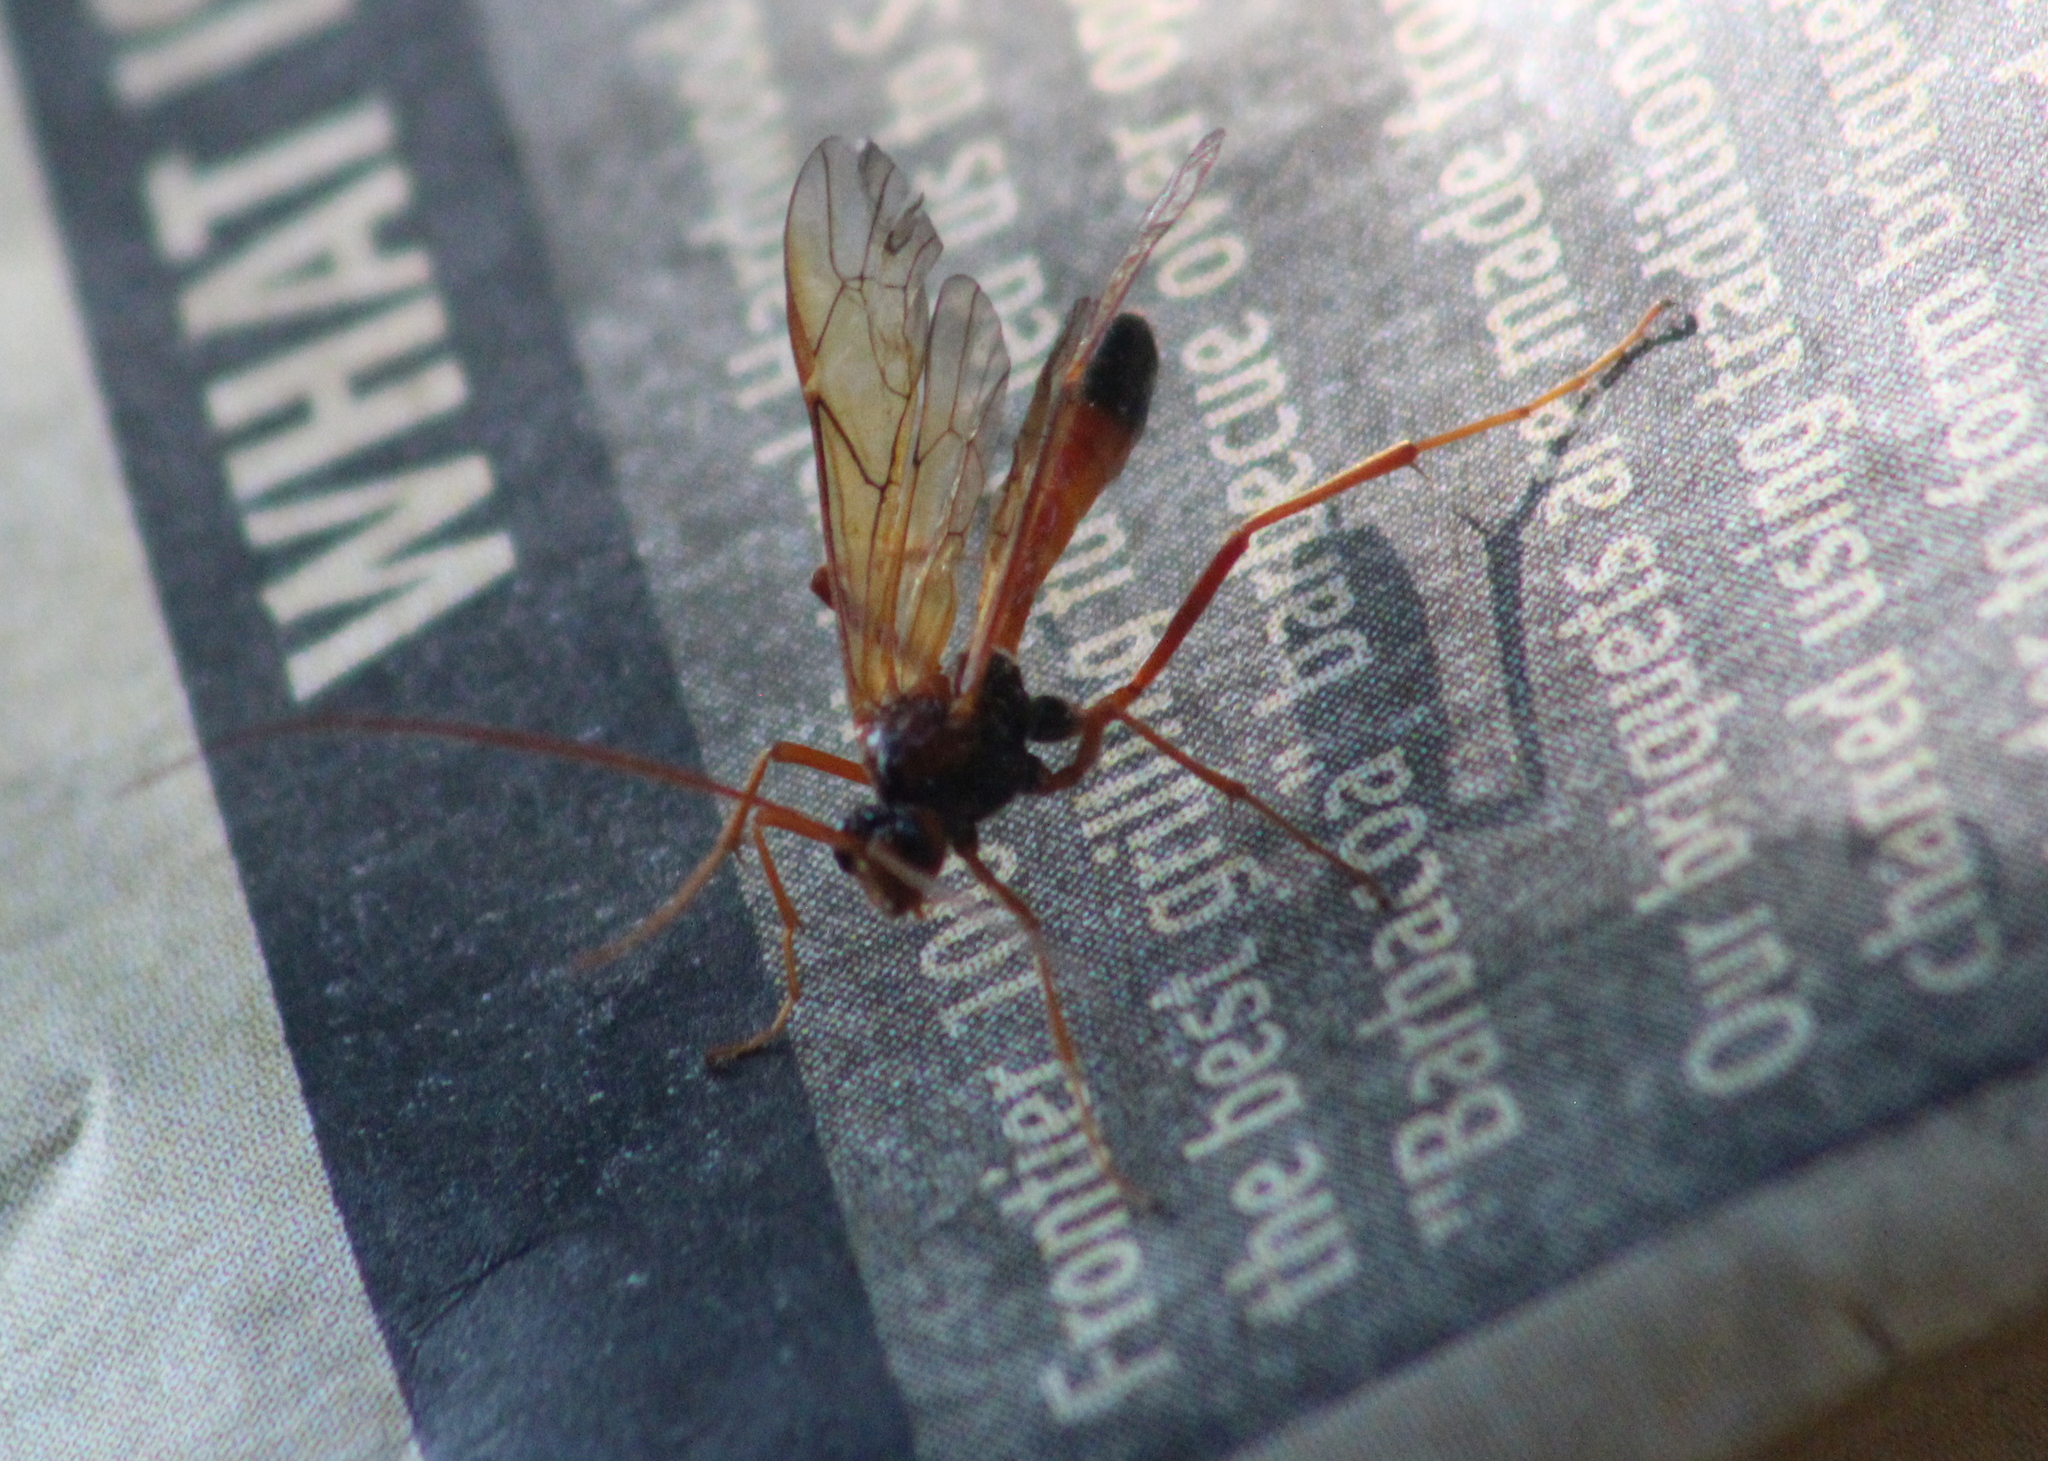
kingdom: Animalia
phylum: Arthropoda
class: Insecta
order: Hymenoptera
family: Ichneumonidae
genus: Opheltes
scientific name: Opheltes glaucopterus
